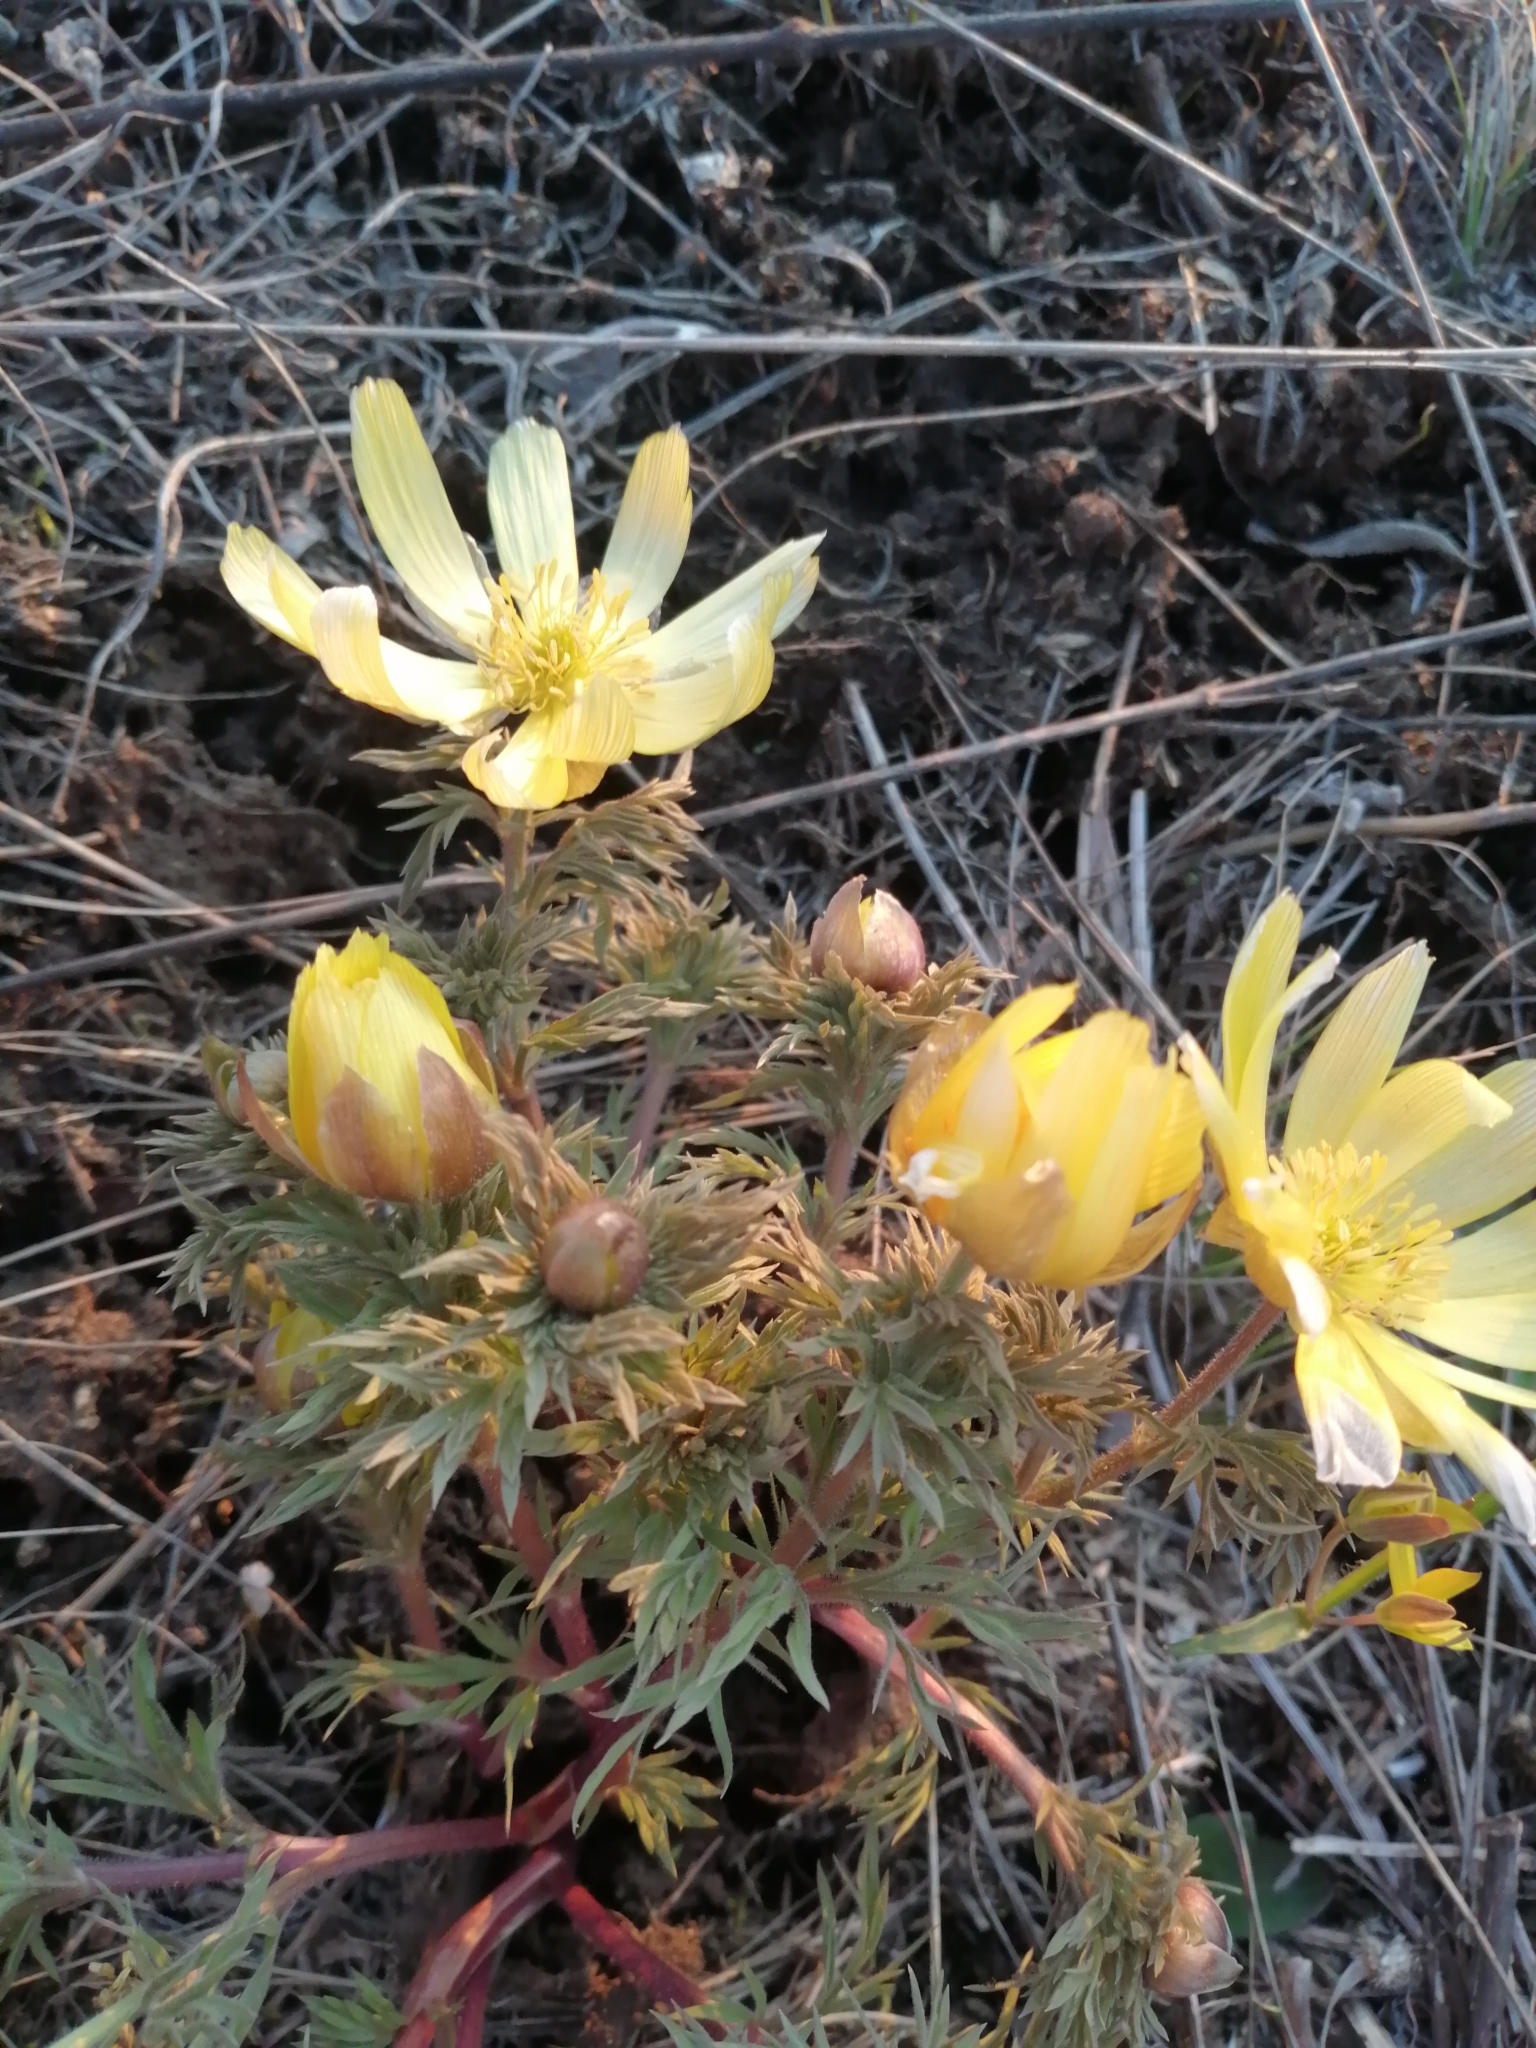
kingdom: Plantae
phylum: Tracheophyta
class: Magnoliopsida
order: Ranunculales
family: Ranunculaceae
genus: Adonis
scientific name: Adonis volgensis
